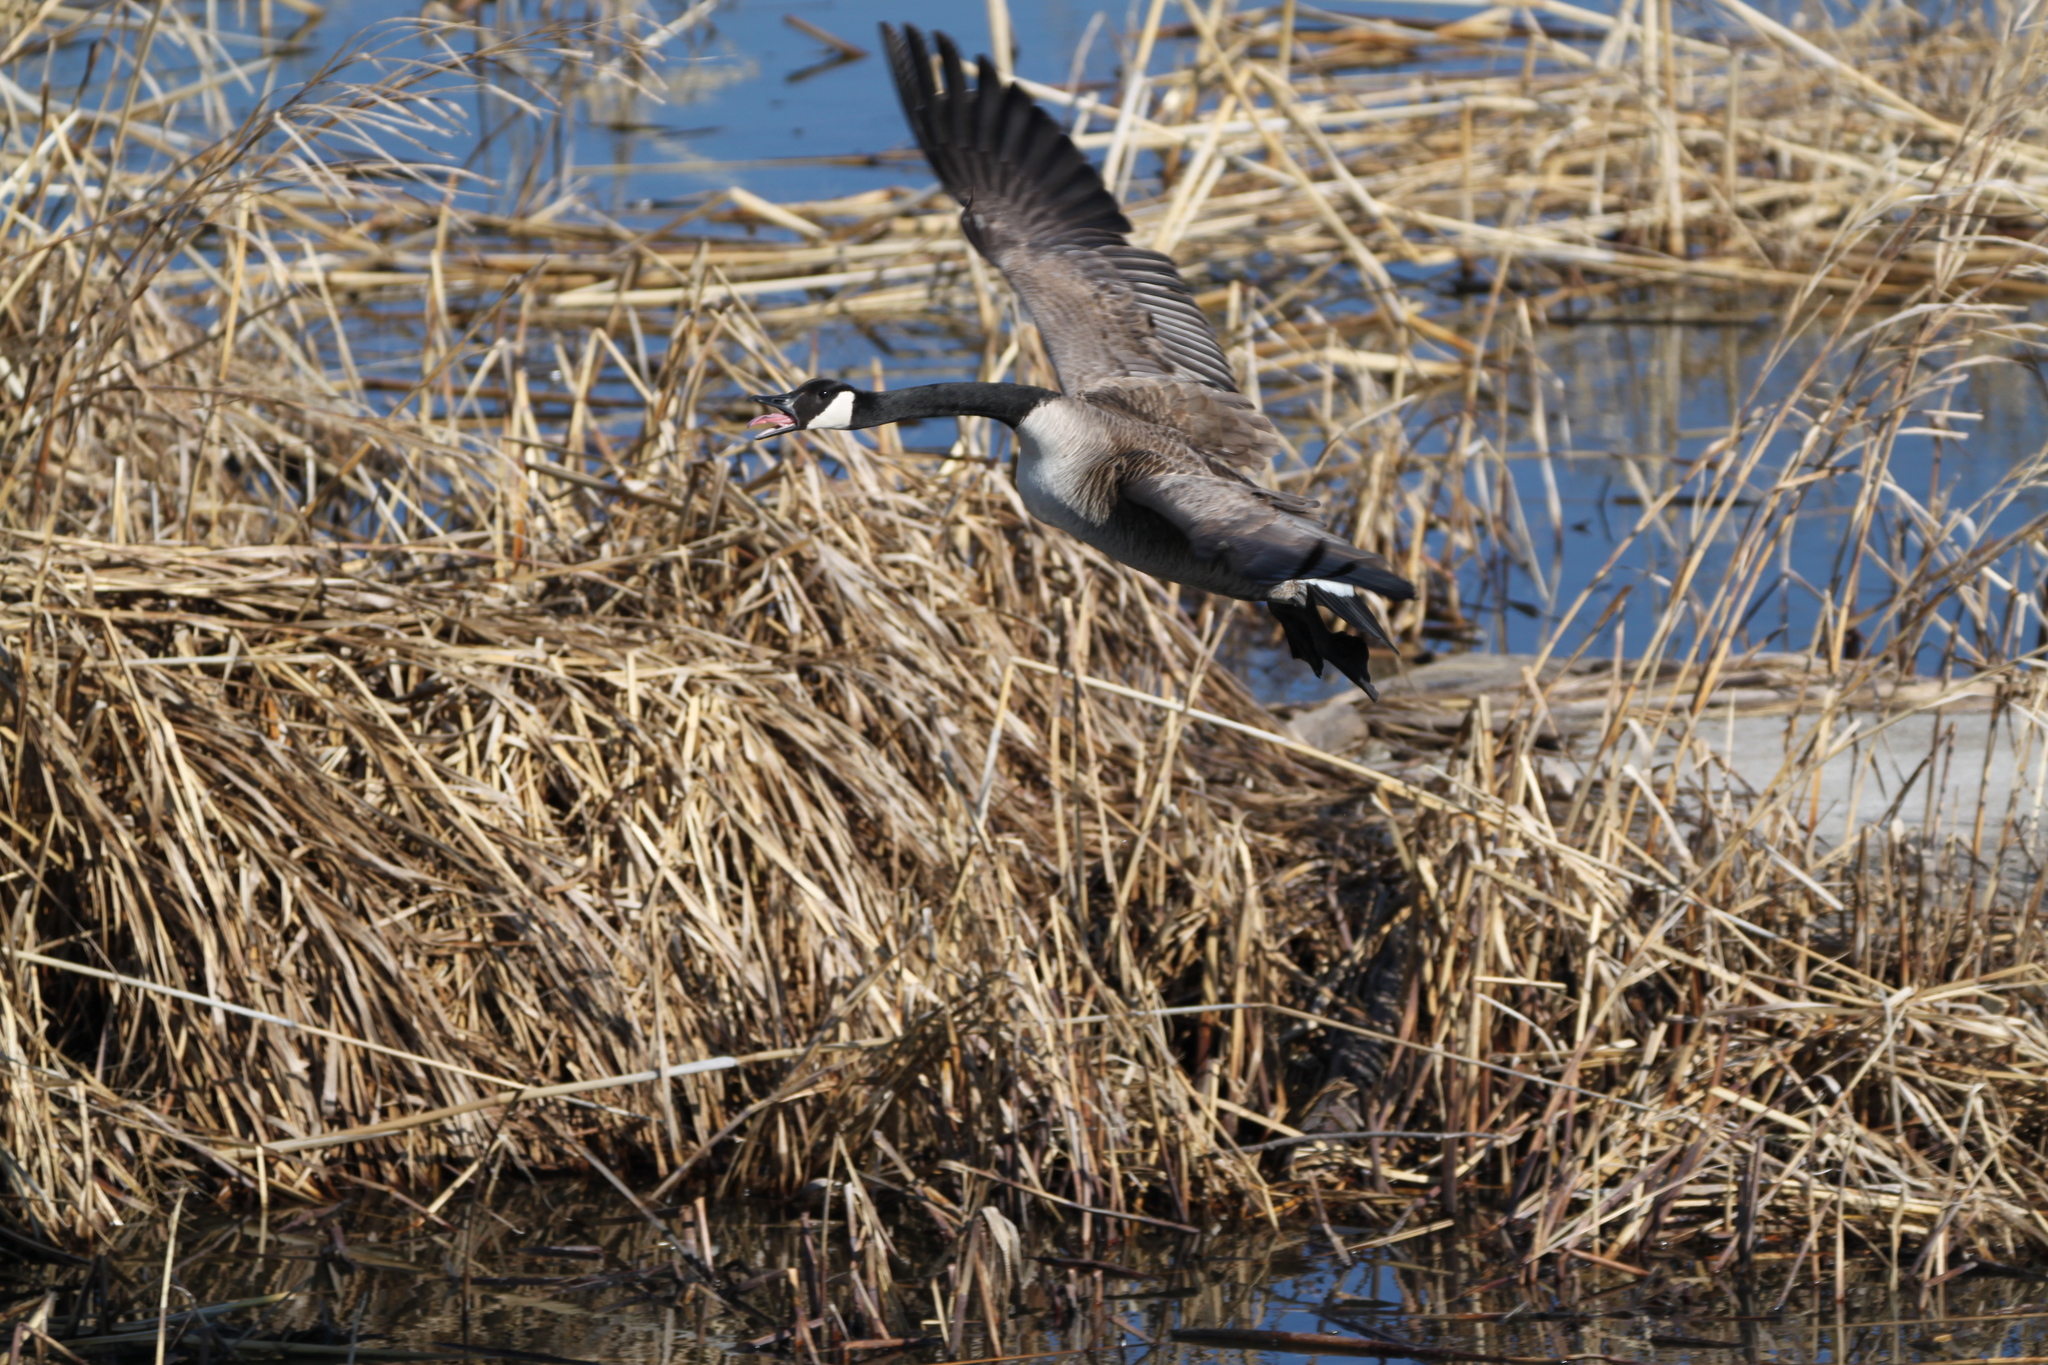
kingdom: Animalia
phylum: Chordata
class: Aves
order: Anseriformes
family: Anatidae
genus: Branta
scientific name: Branta canadensis
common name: Canada goose
